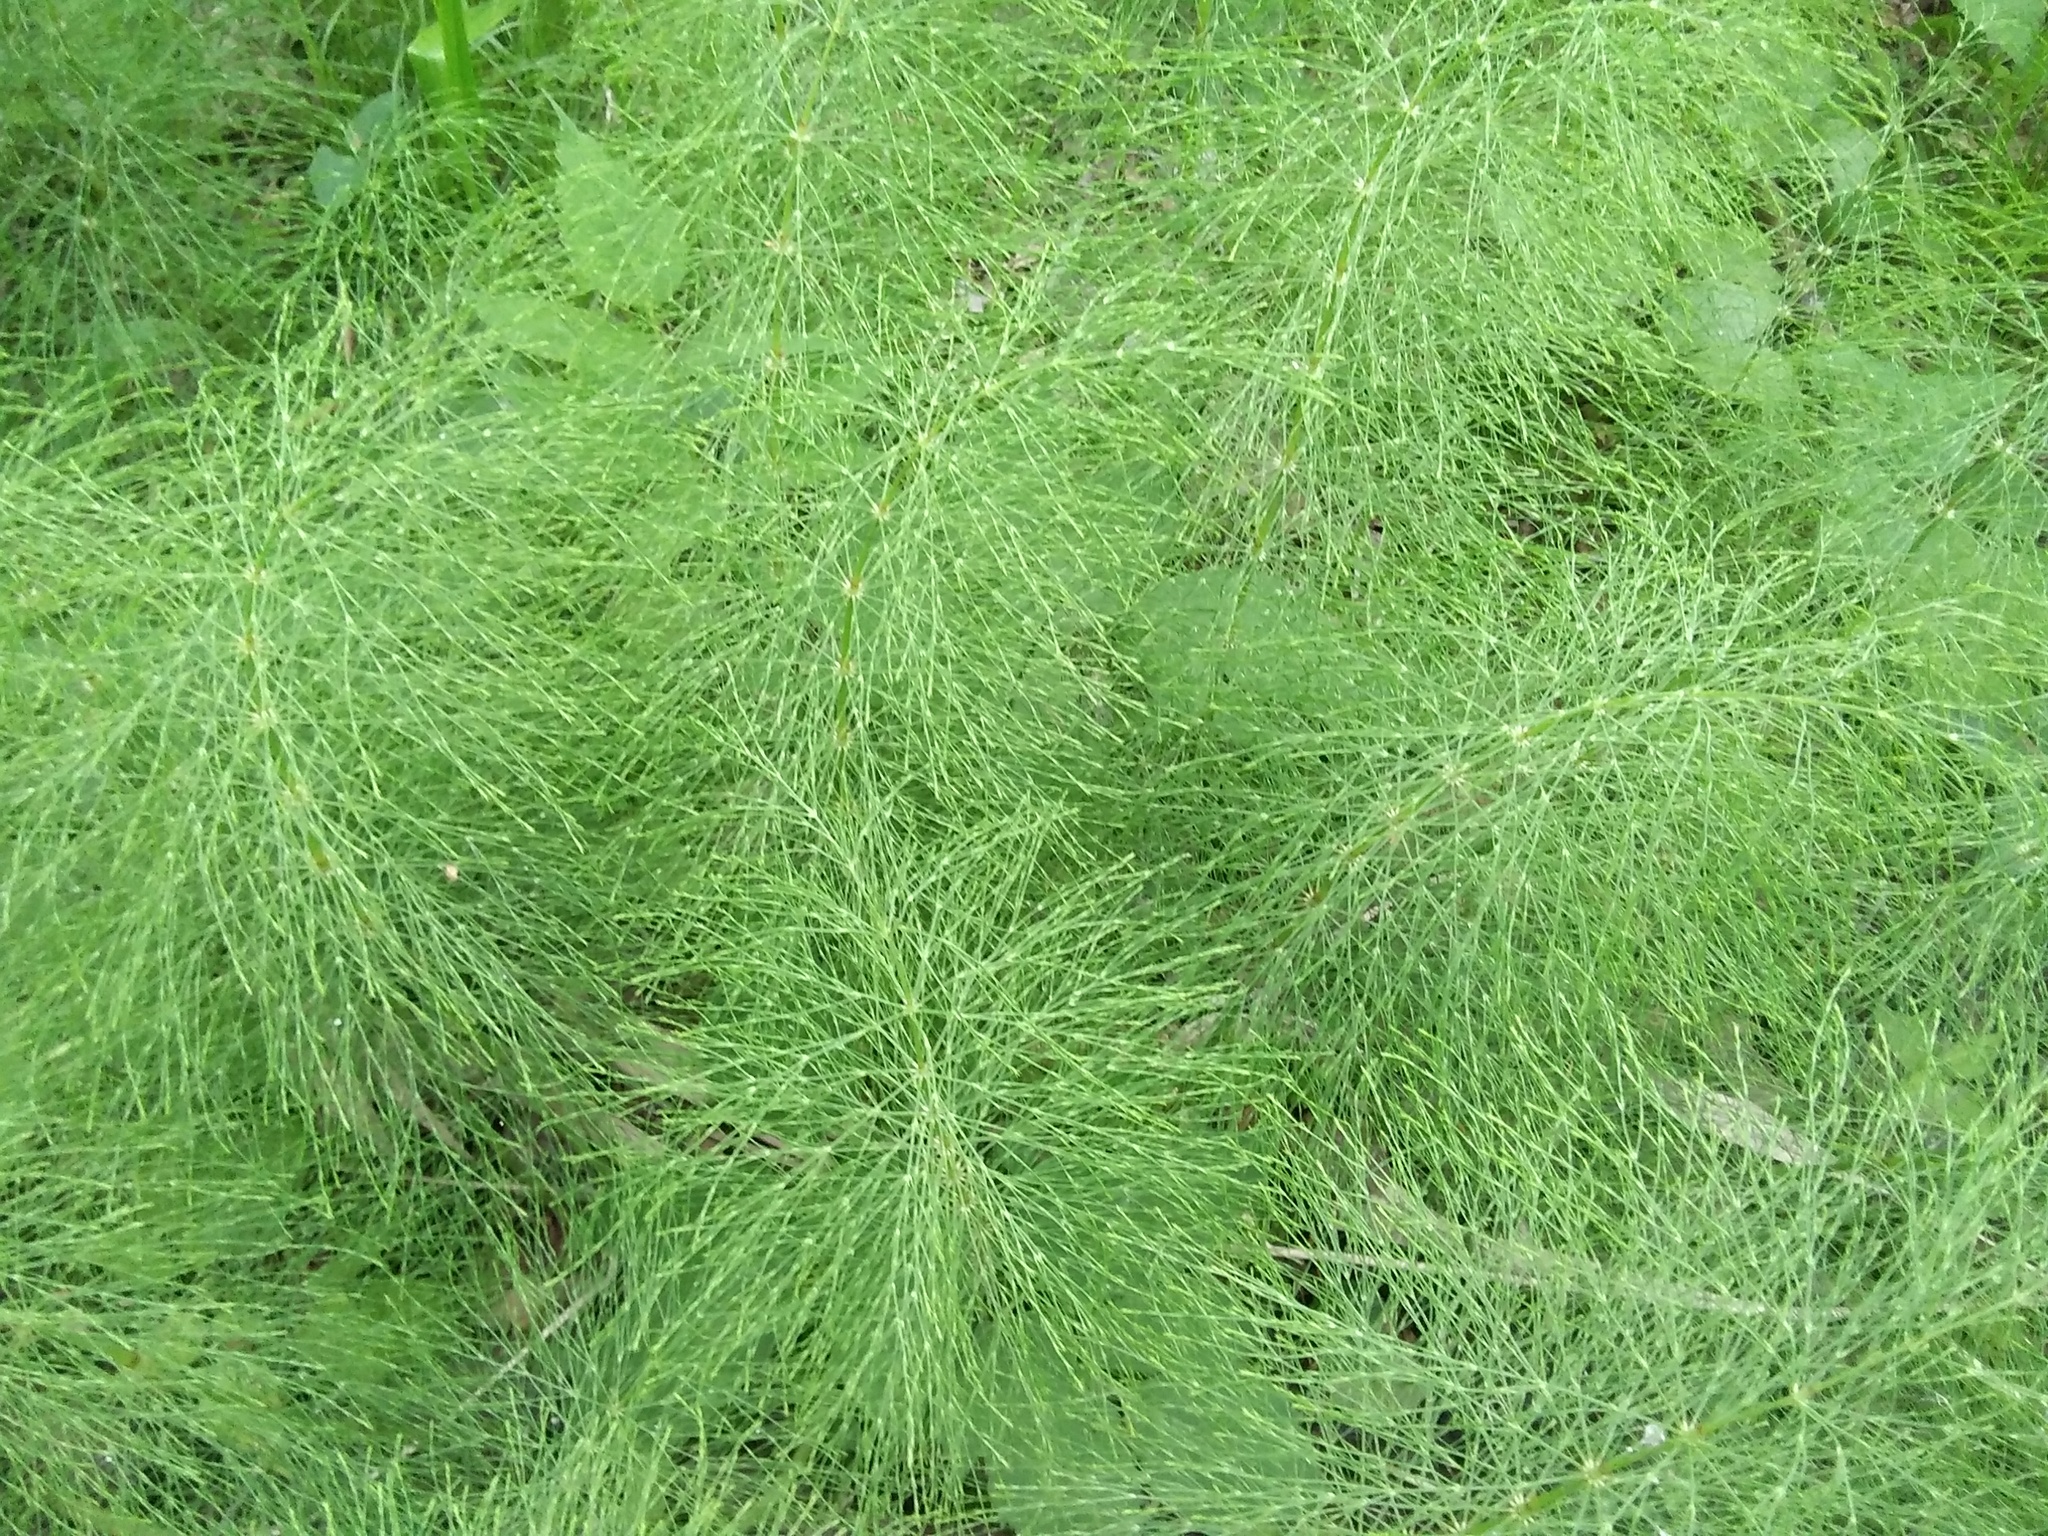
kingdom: Plantae
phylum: Tracheophyta
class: Polypodiopsida
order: Equisetales
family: Equisetaceae
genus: Equisetum
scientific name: Equisetum sylvaticum
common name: Wood horsetail
